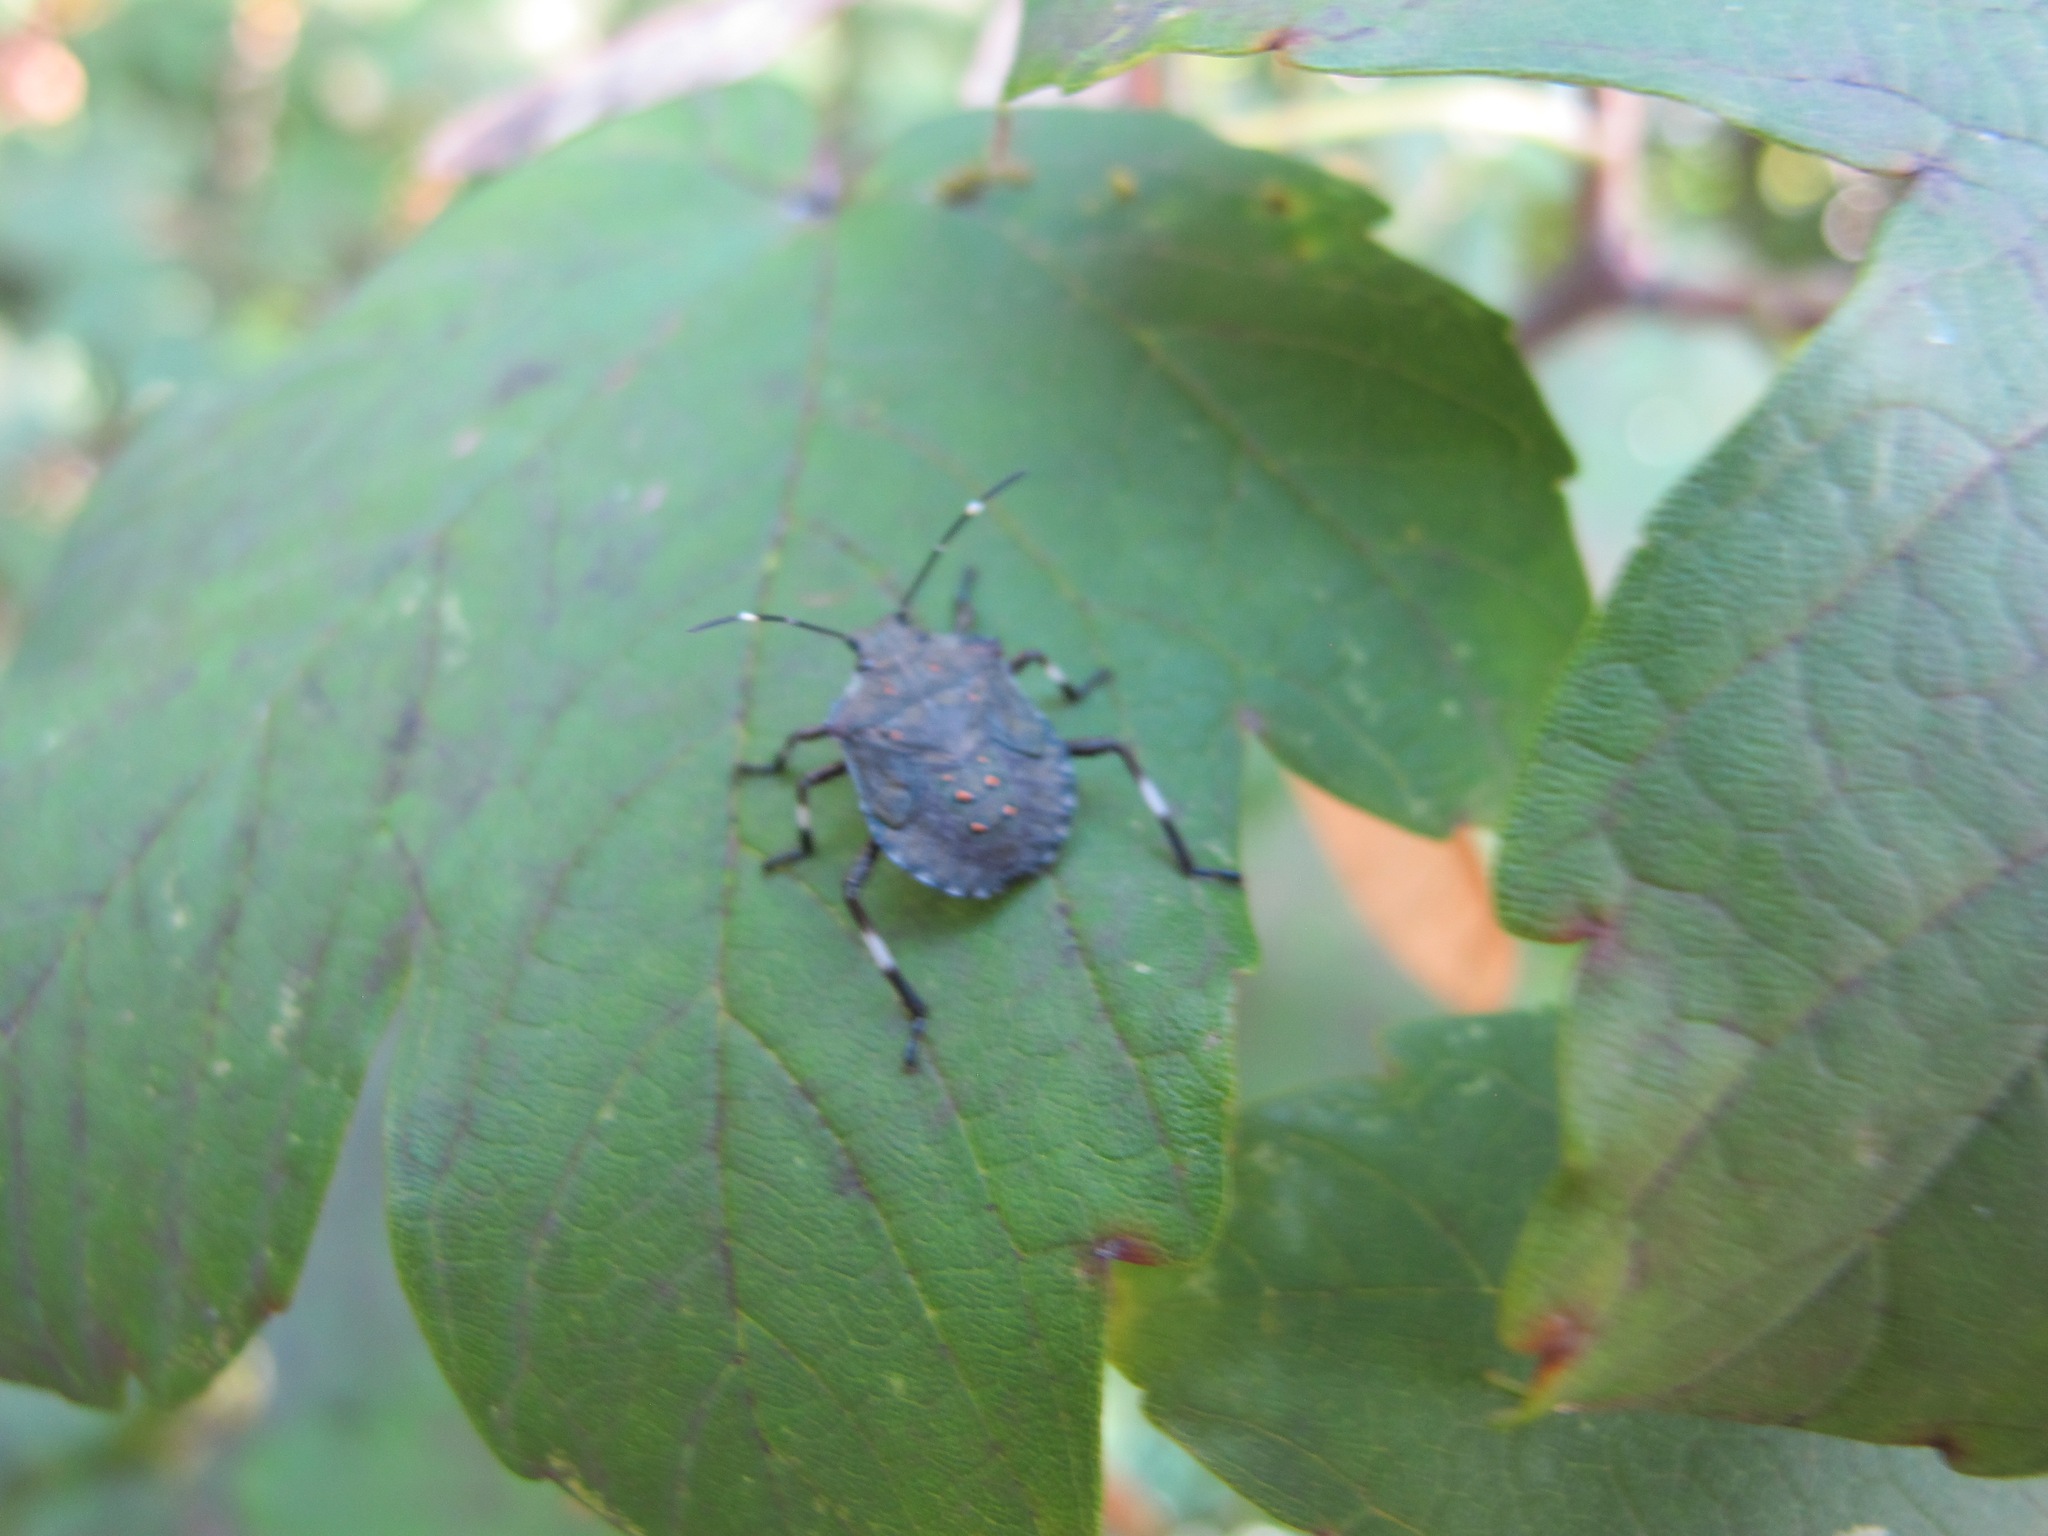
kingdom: Animalia
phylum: Arthropoda
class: Insecta
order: Hemiptera
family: Pentatomidae
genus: Halyomorpha
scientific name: Halyomorpha halys
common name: Brown marmorated stink bug
